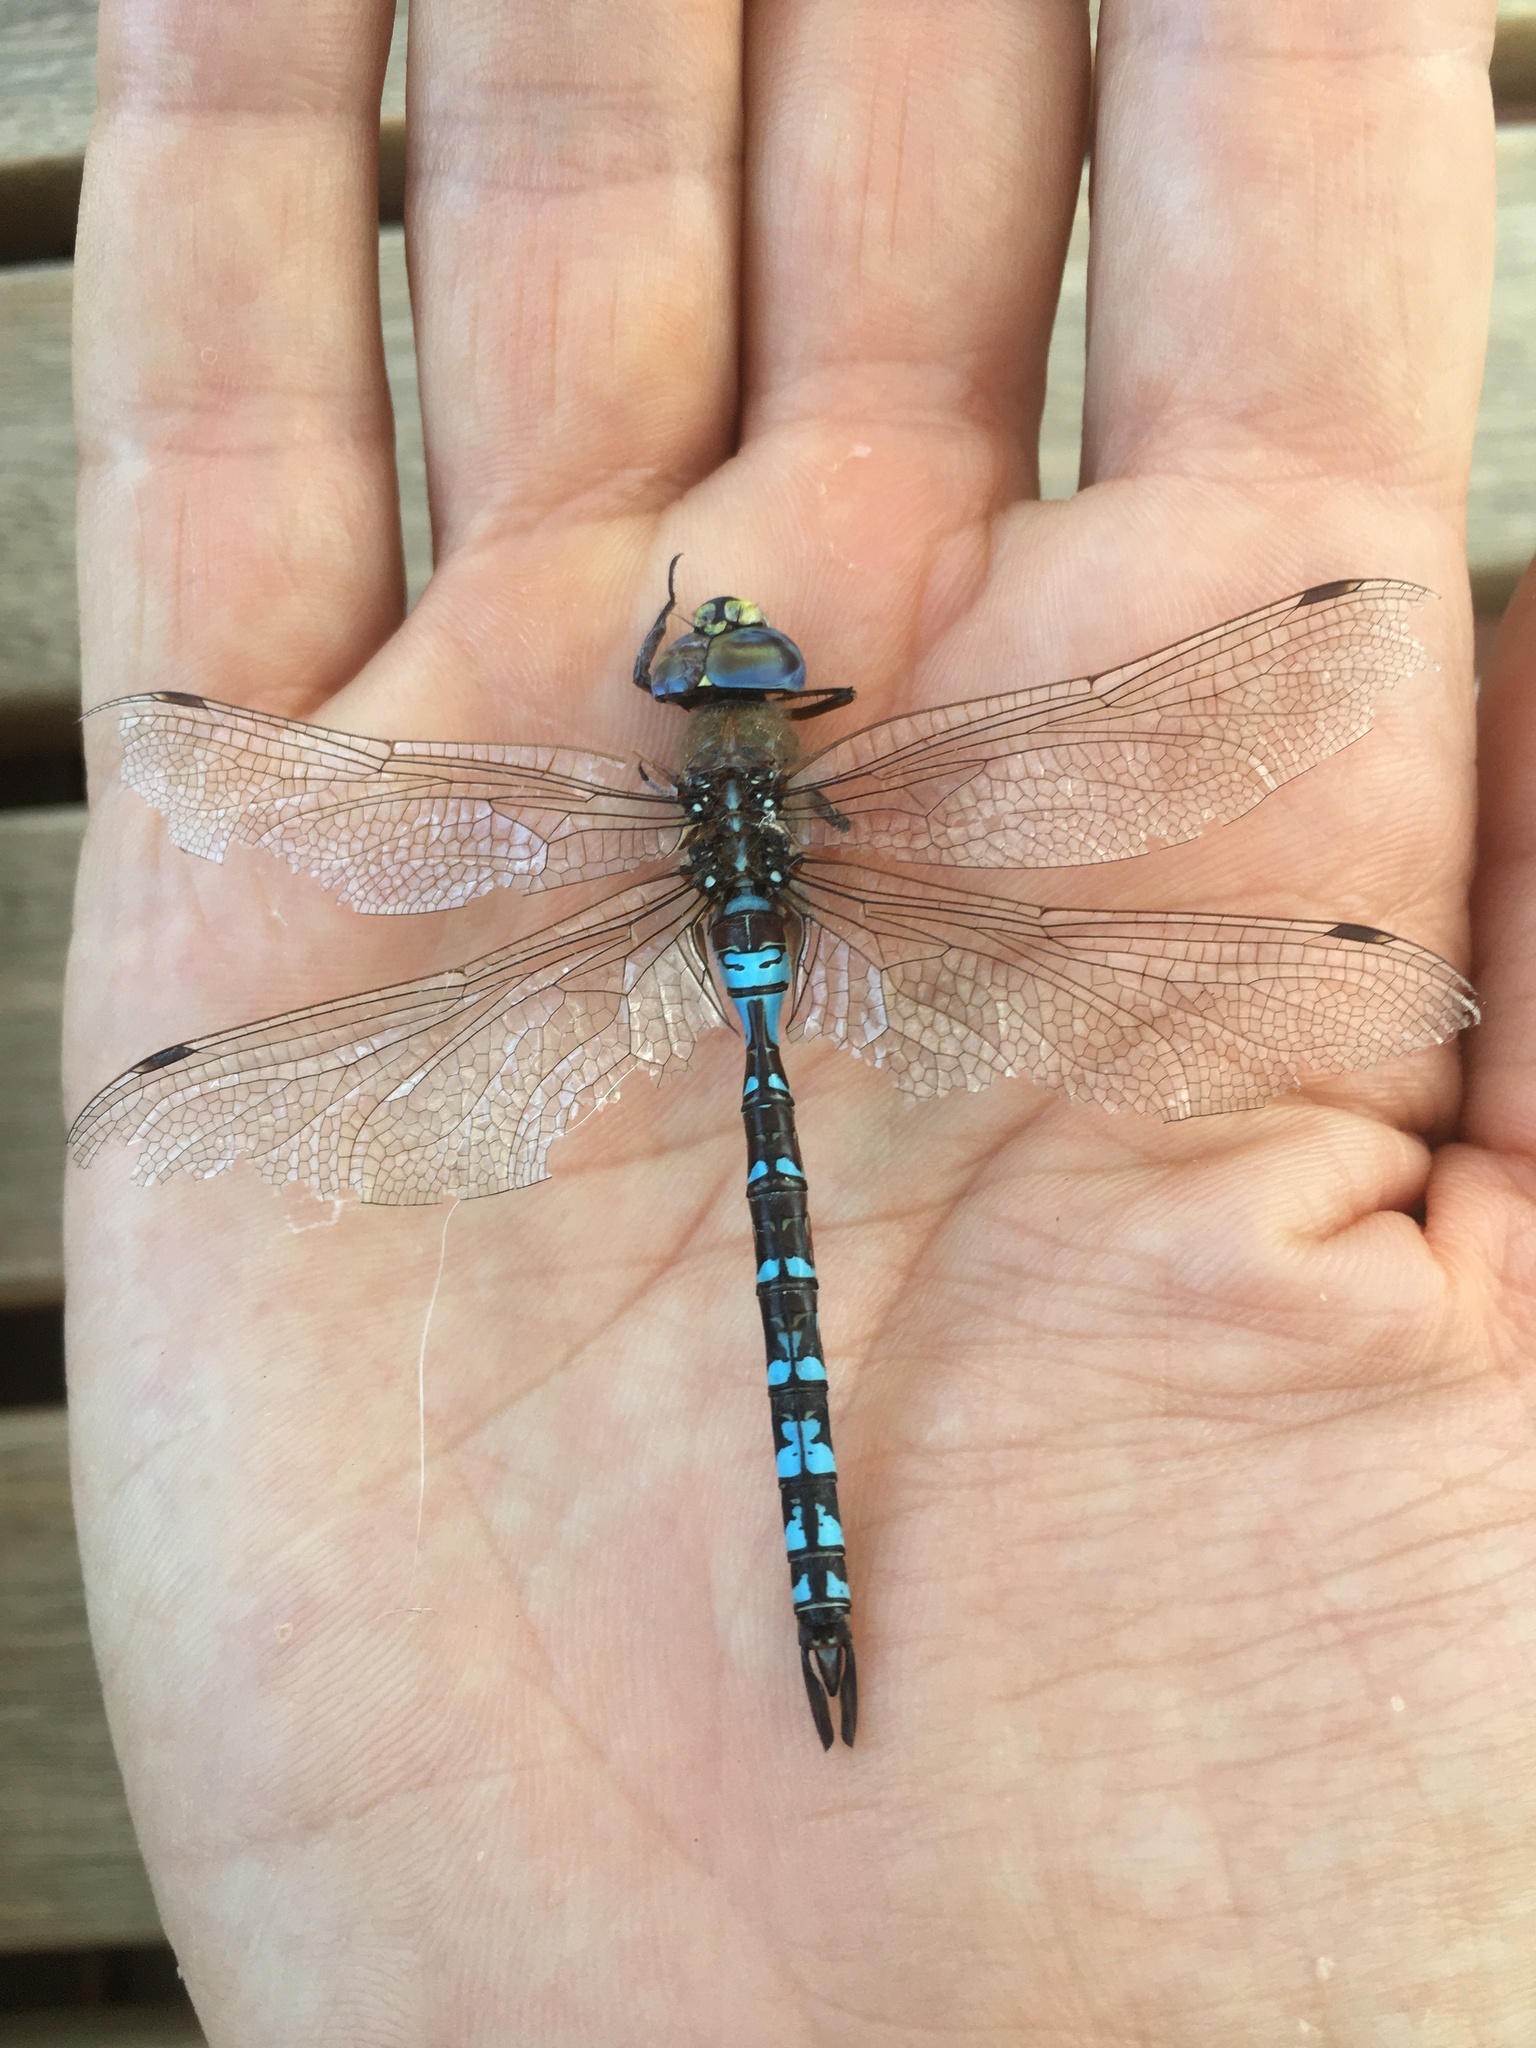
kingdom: Animalia
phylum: Arthropoda
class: Insecta
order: Odonata
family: Aeshnidae
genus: Rhionaeschna
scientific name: Rhionaeschna absoluta
